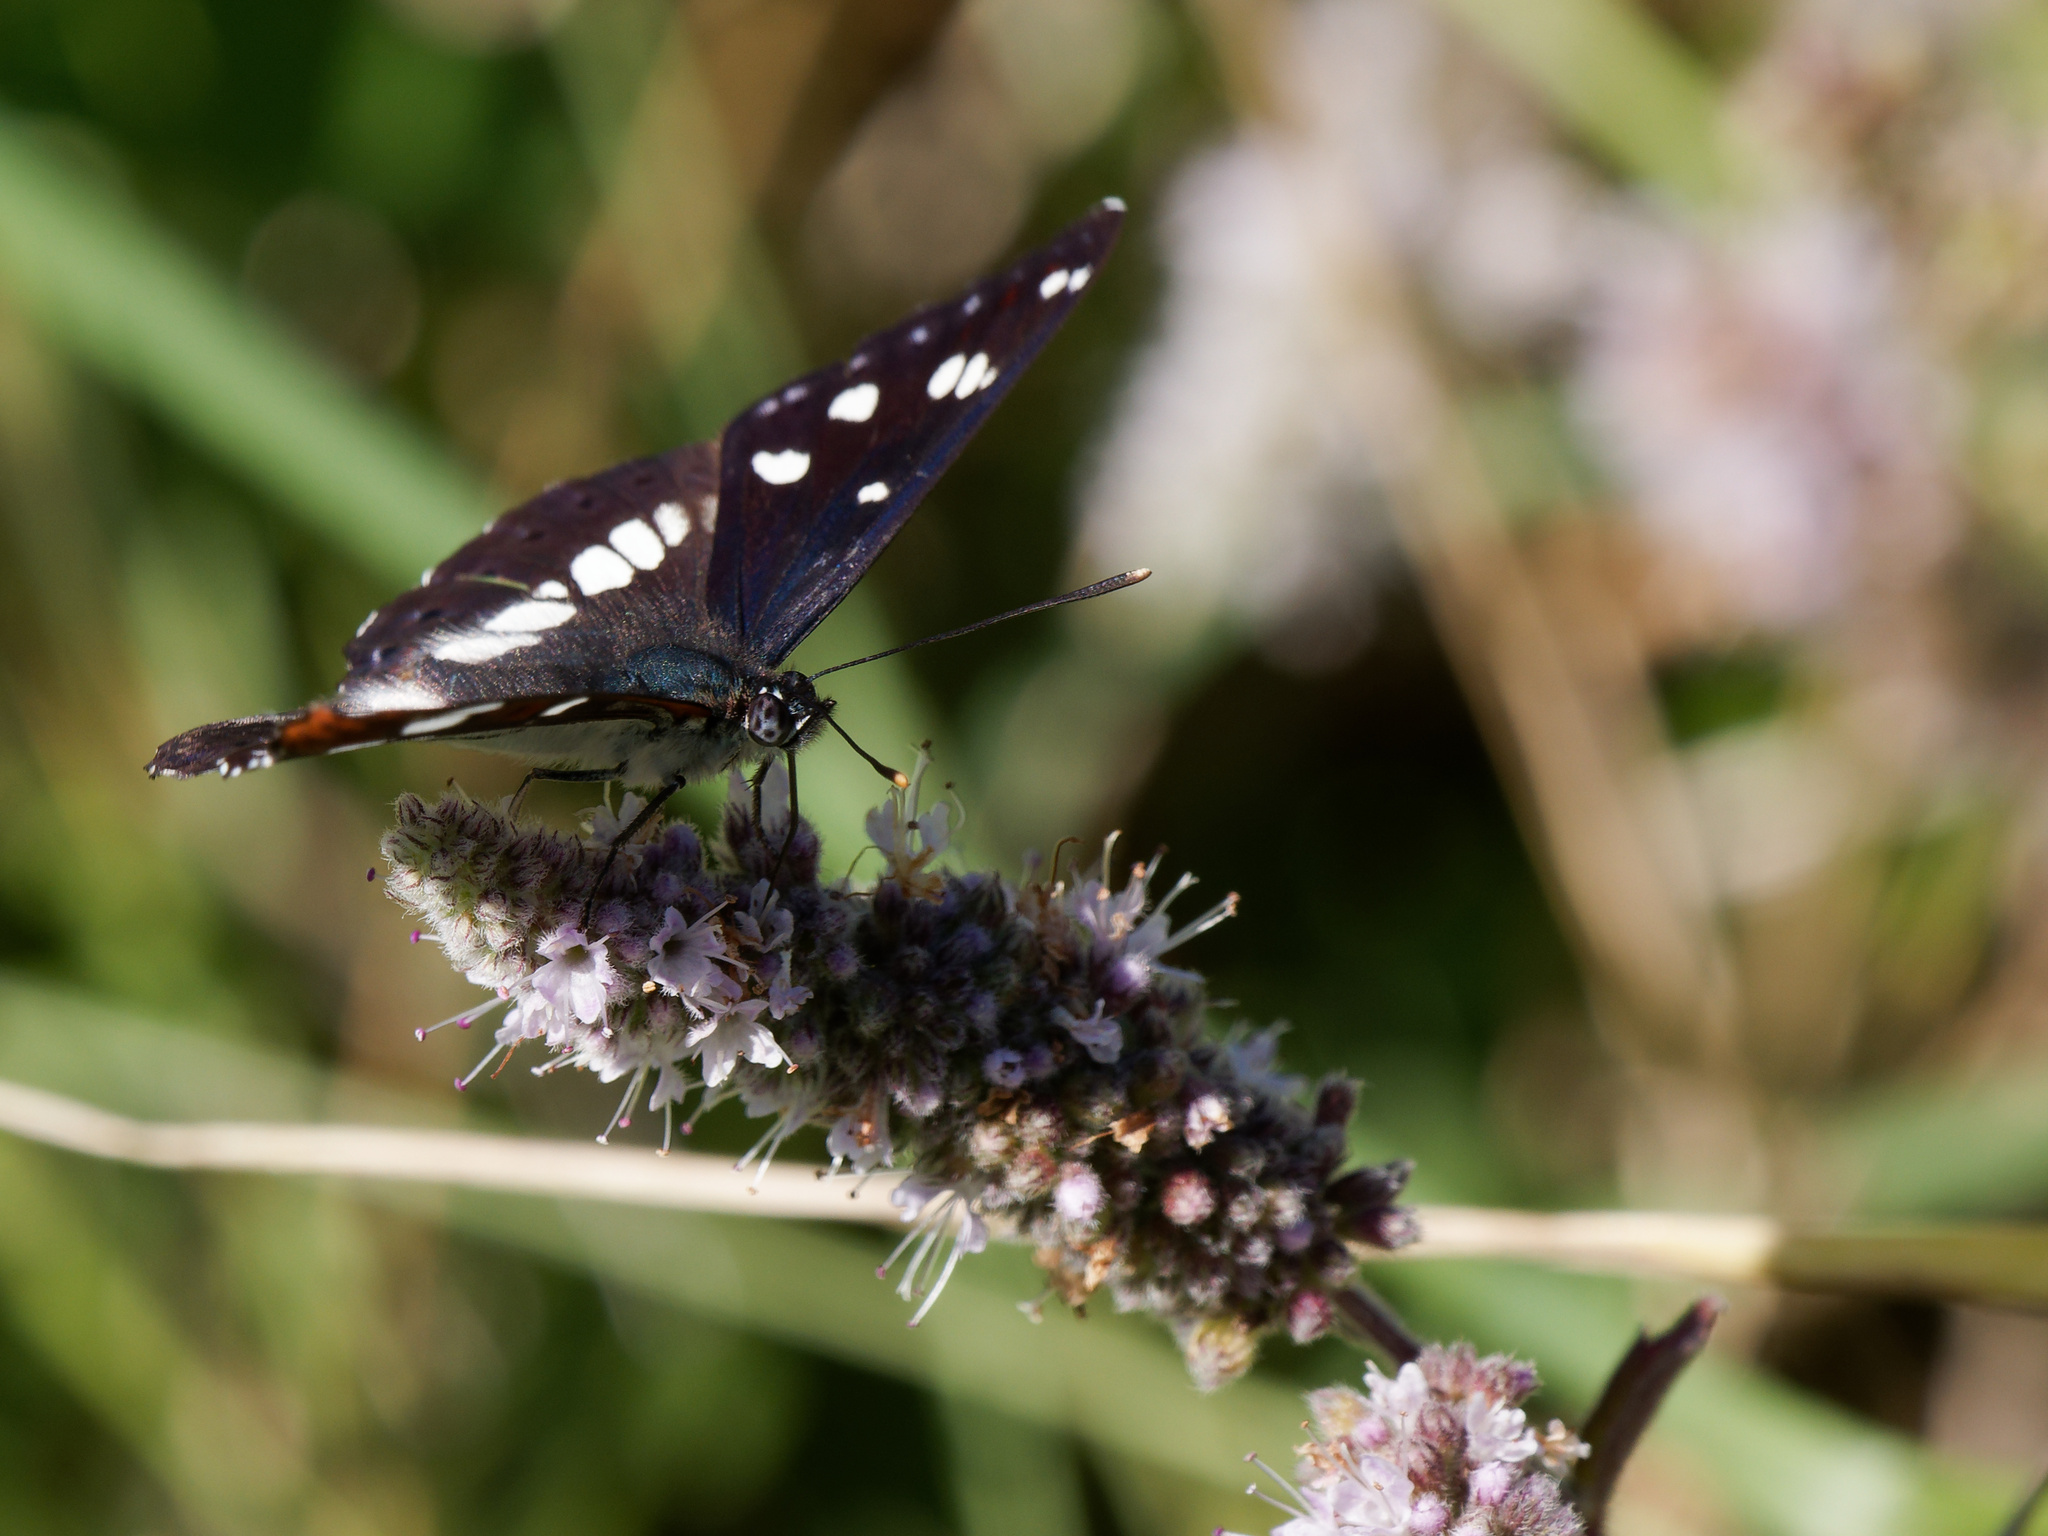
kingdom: Animalia
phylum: Arthropoda
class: Insecta
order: Lepidoptera
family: Nymphalidae
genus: Limenitis
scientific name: Limenitis reducta
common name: Southern white admiral
